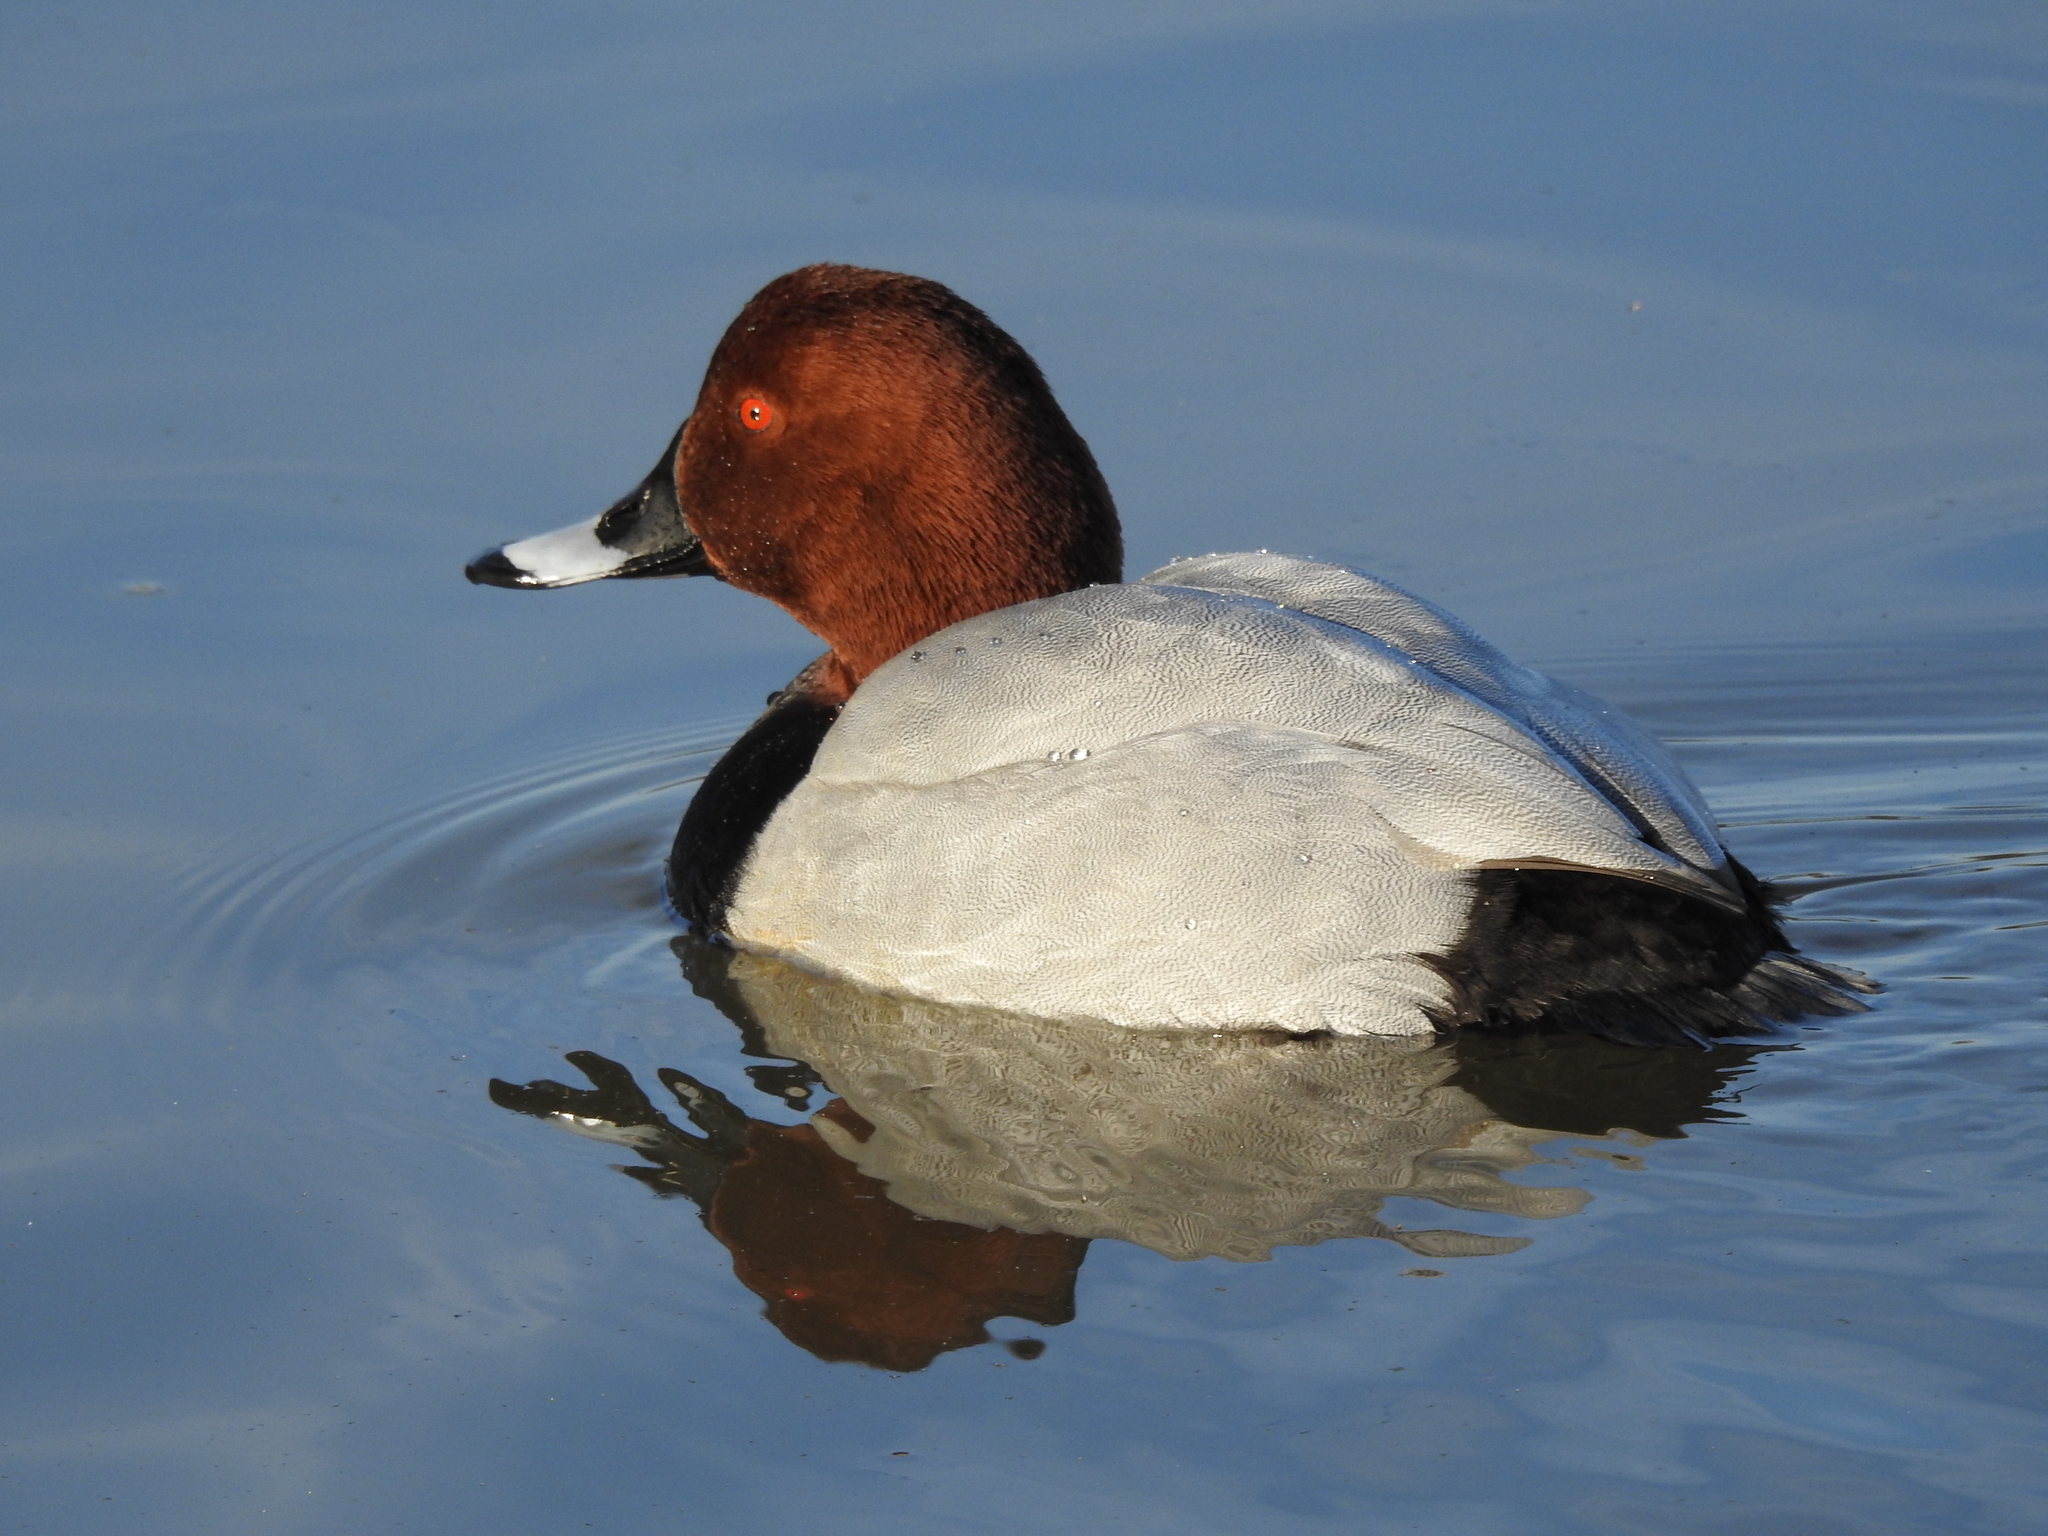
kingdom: Animalia
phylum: Chordata
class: Aves
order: Anseriformes
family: Anatidae
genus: Aythya
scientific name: Aythya ferina
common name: Common pochard
